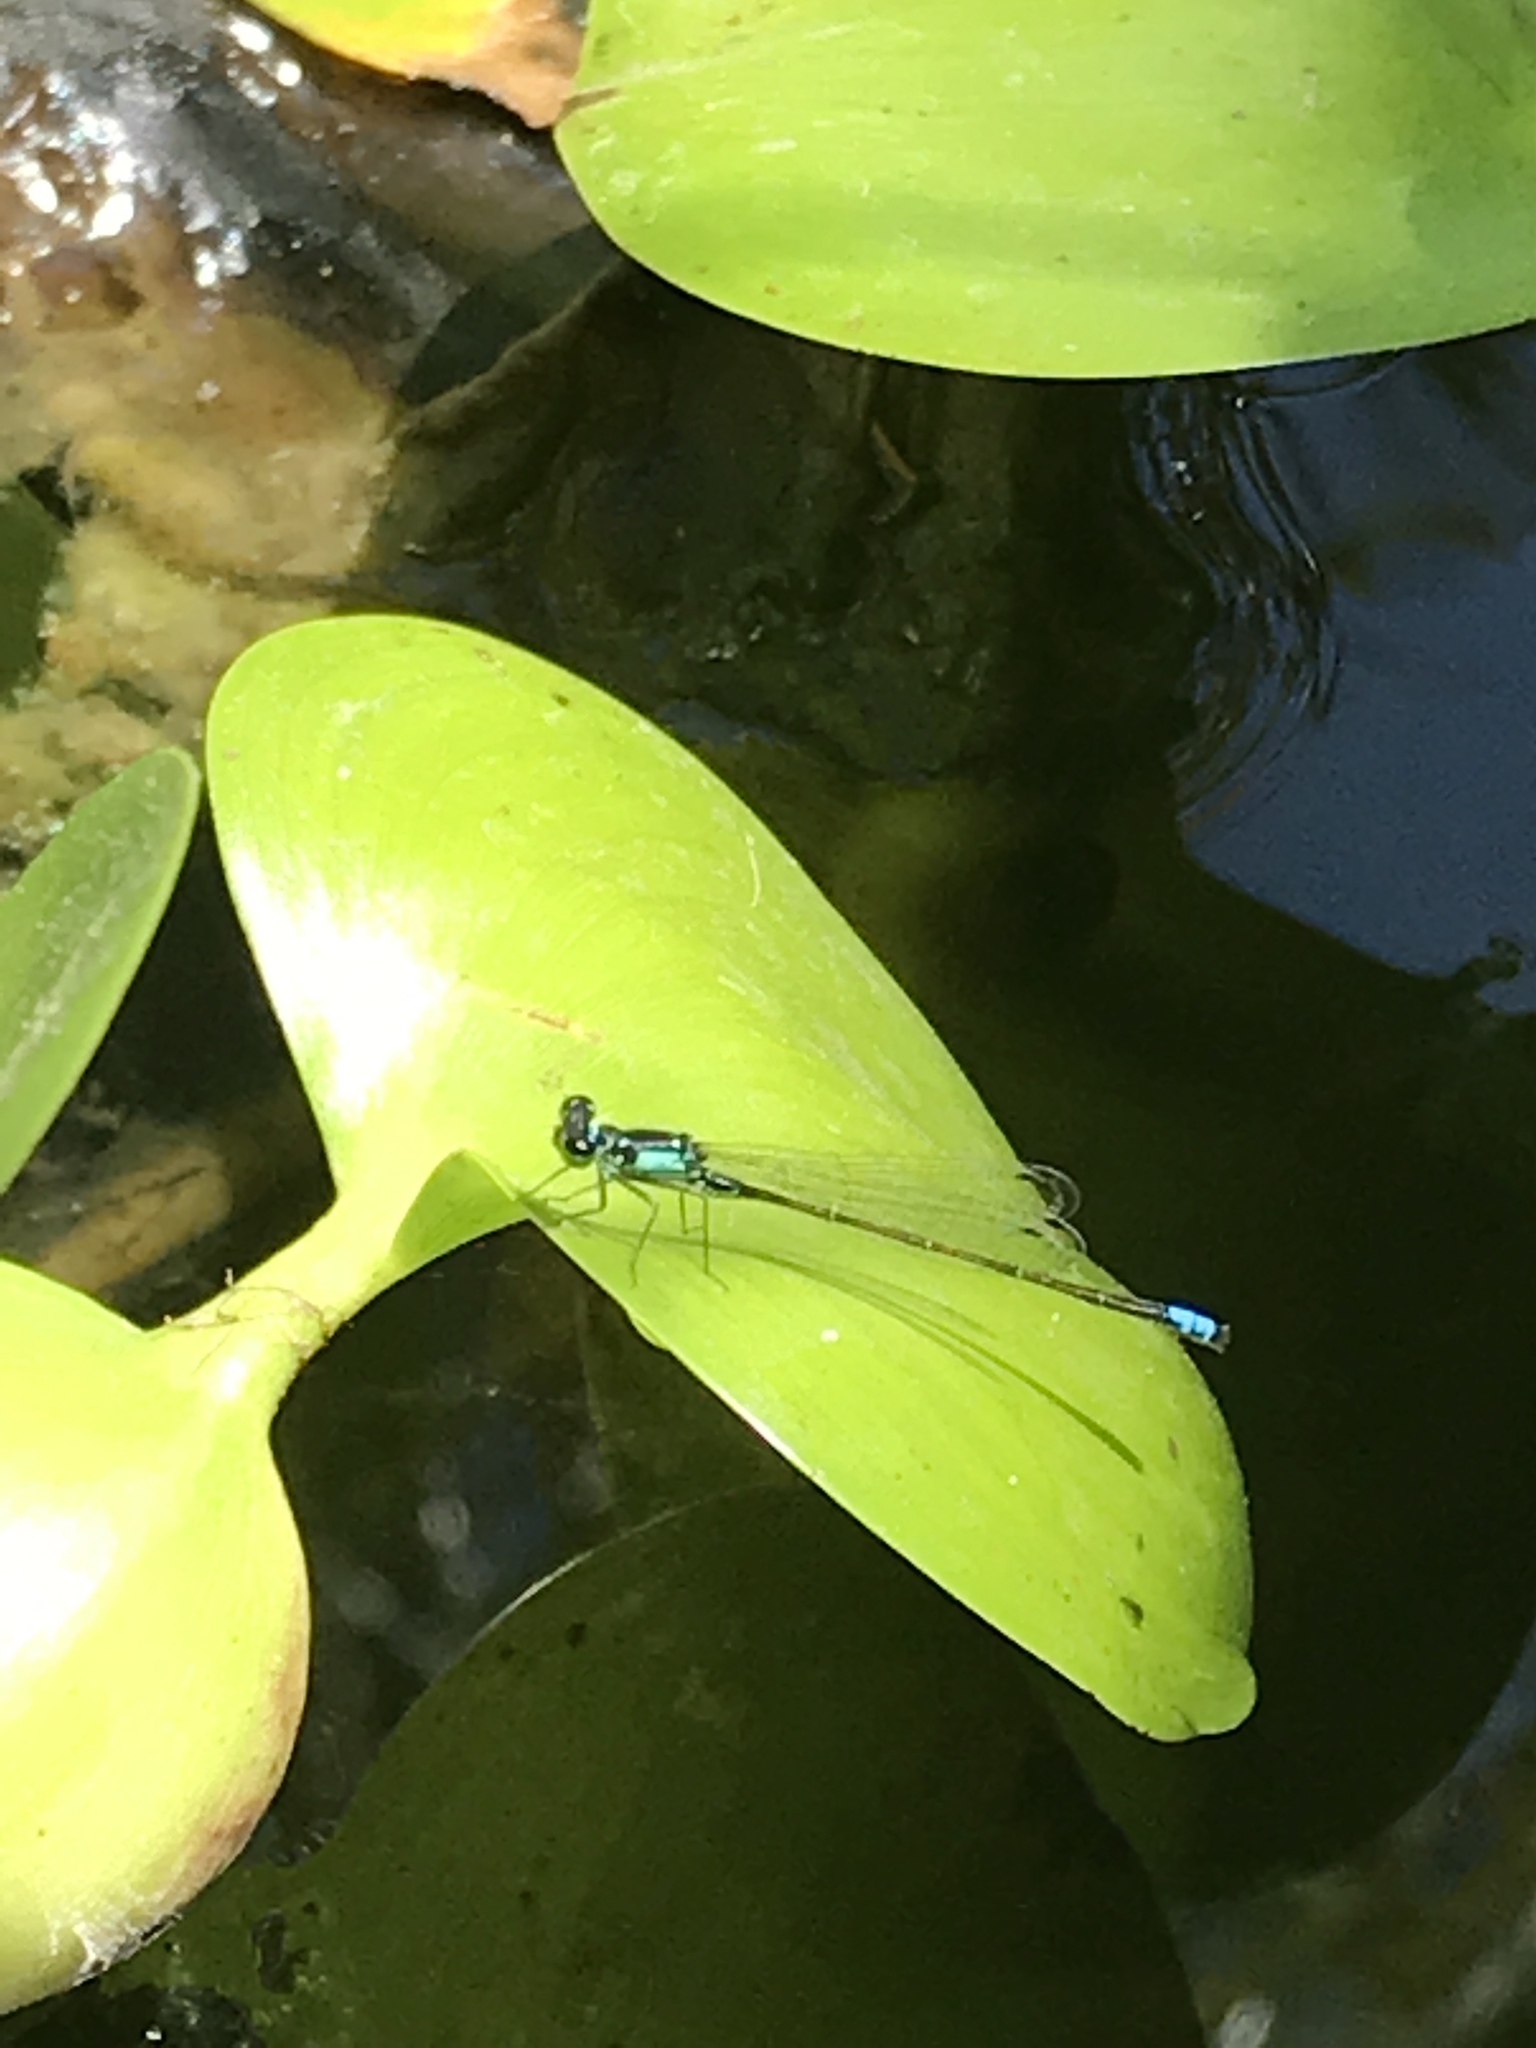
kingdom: Animalia
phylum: Arthropoda
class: Insecta
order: Odonata
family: Coenagrionidae
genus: Ischnura
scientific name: Ischnura cervula
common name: Pacific forktail
